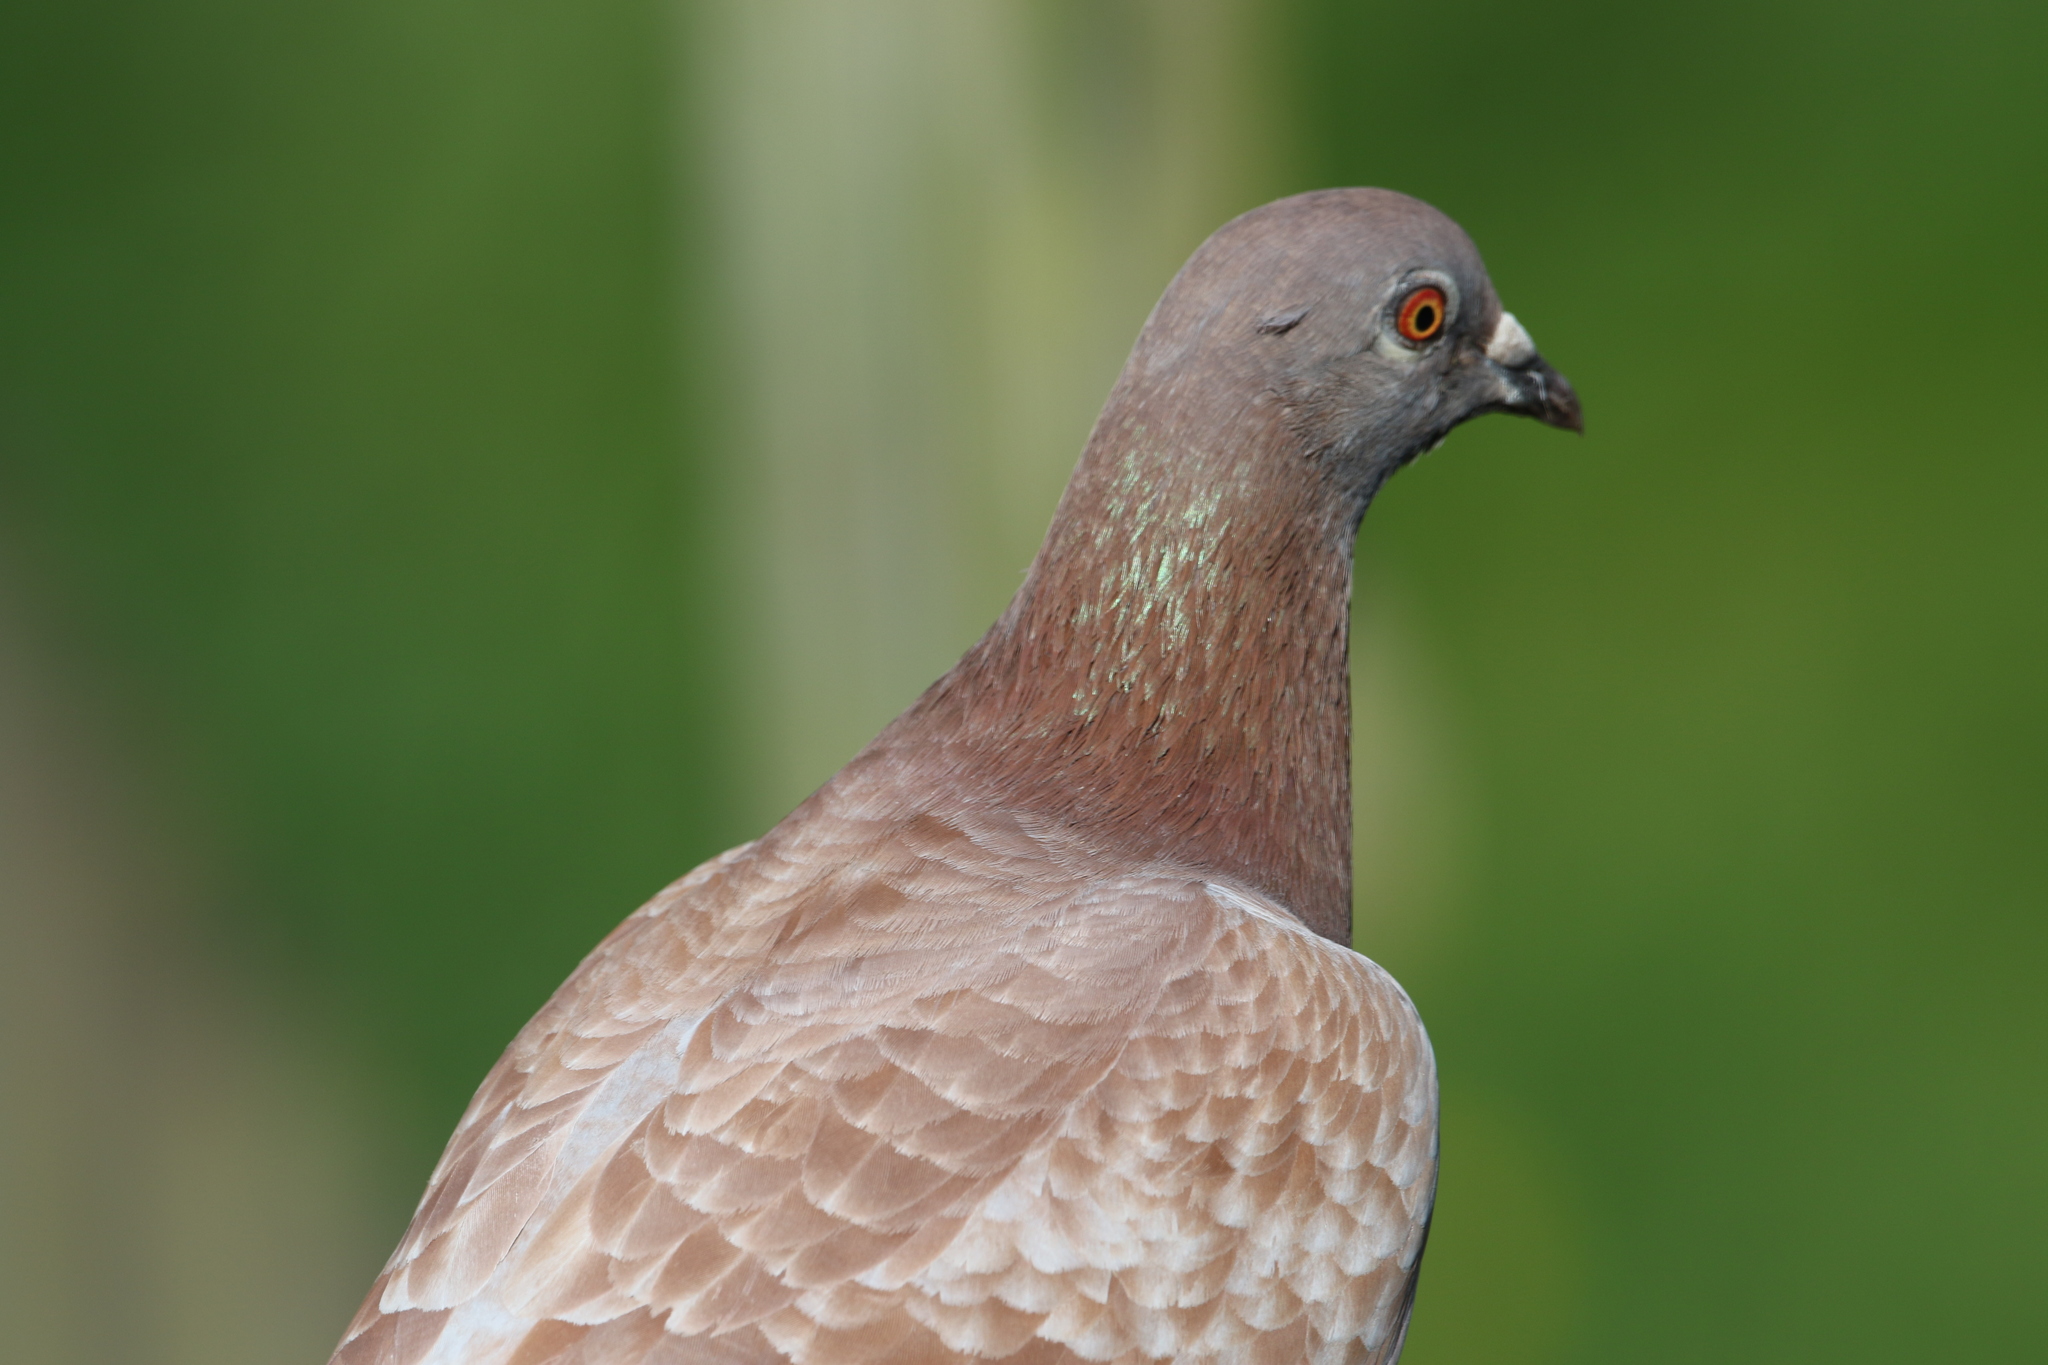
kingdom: Animalia
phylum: Chordata
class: Aves
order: Columbiformes
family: Columbidae
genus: Columba
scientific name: Columba livia
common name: Rock pigeon
